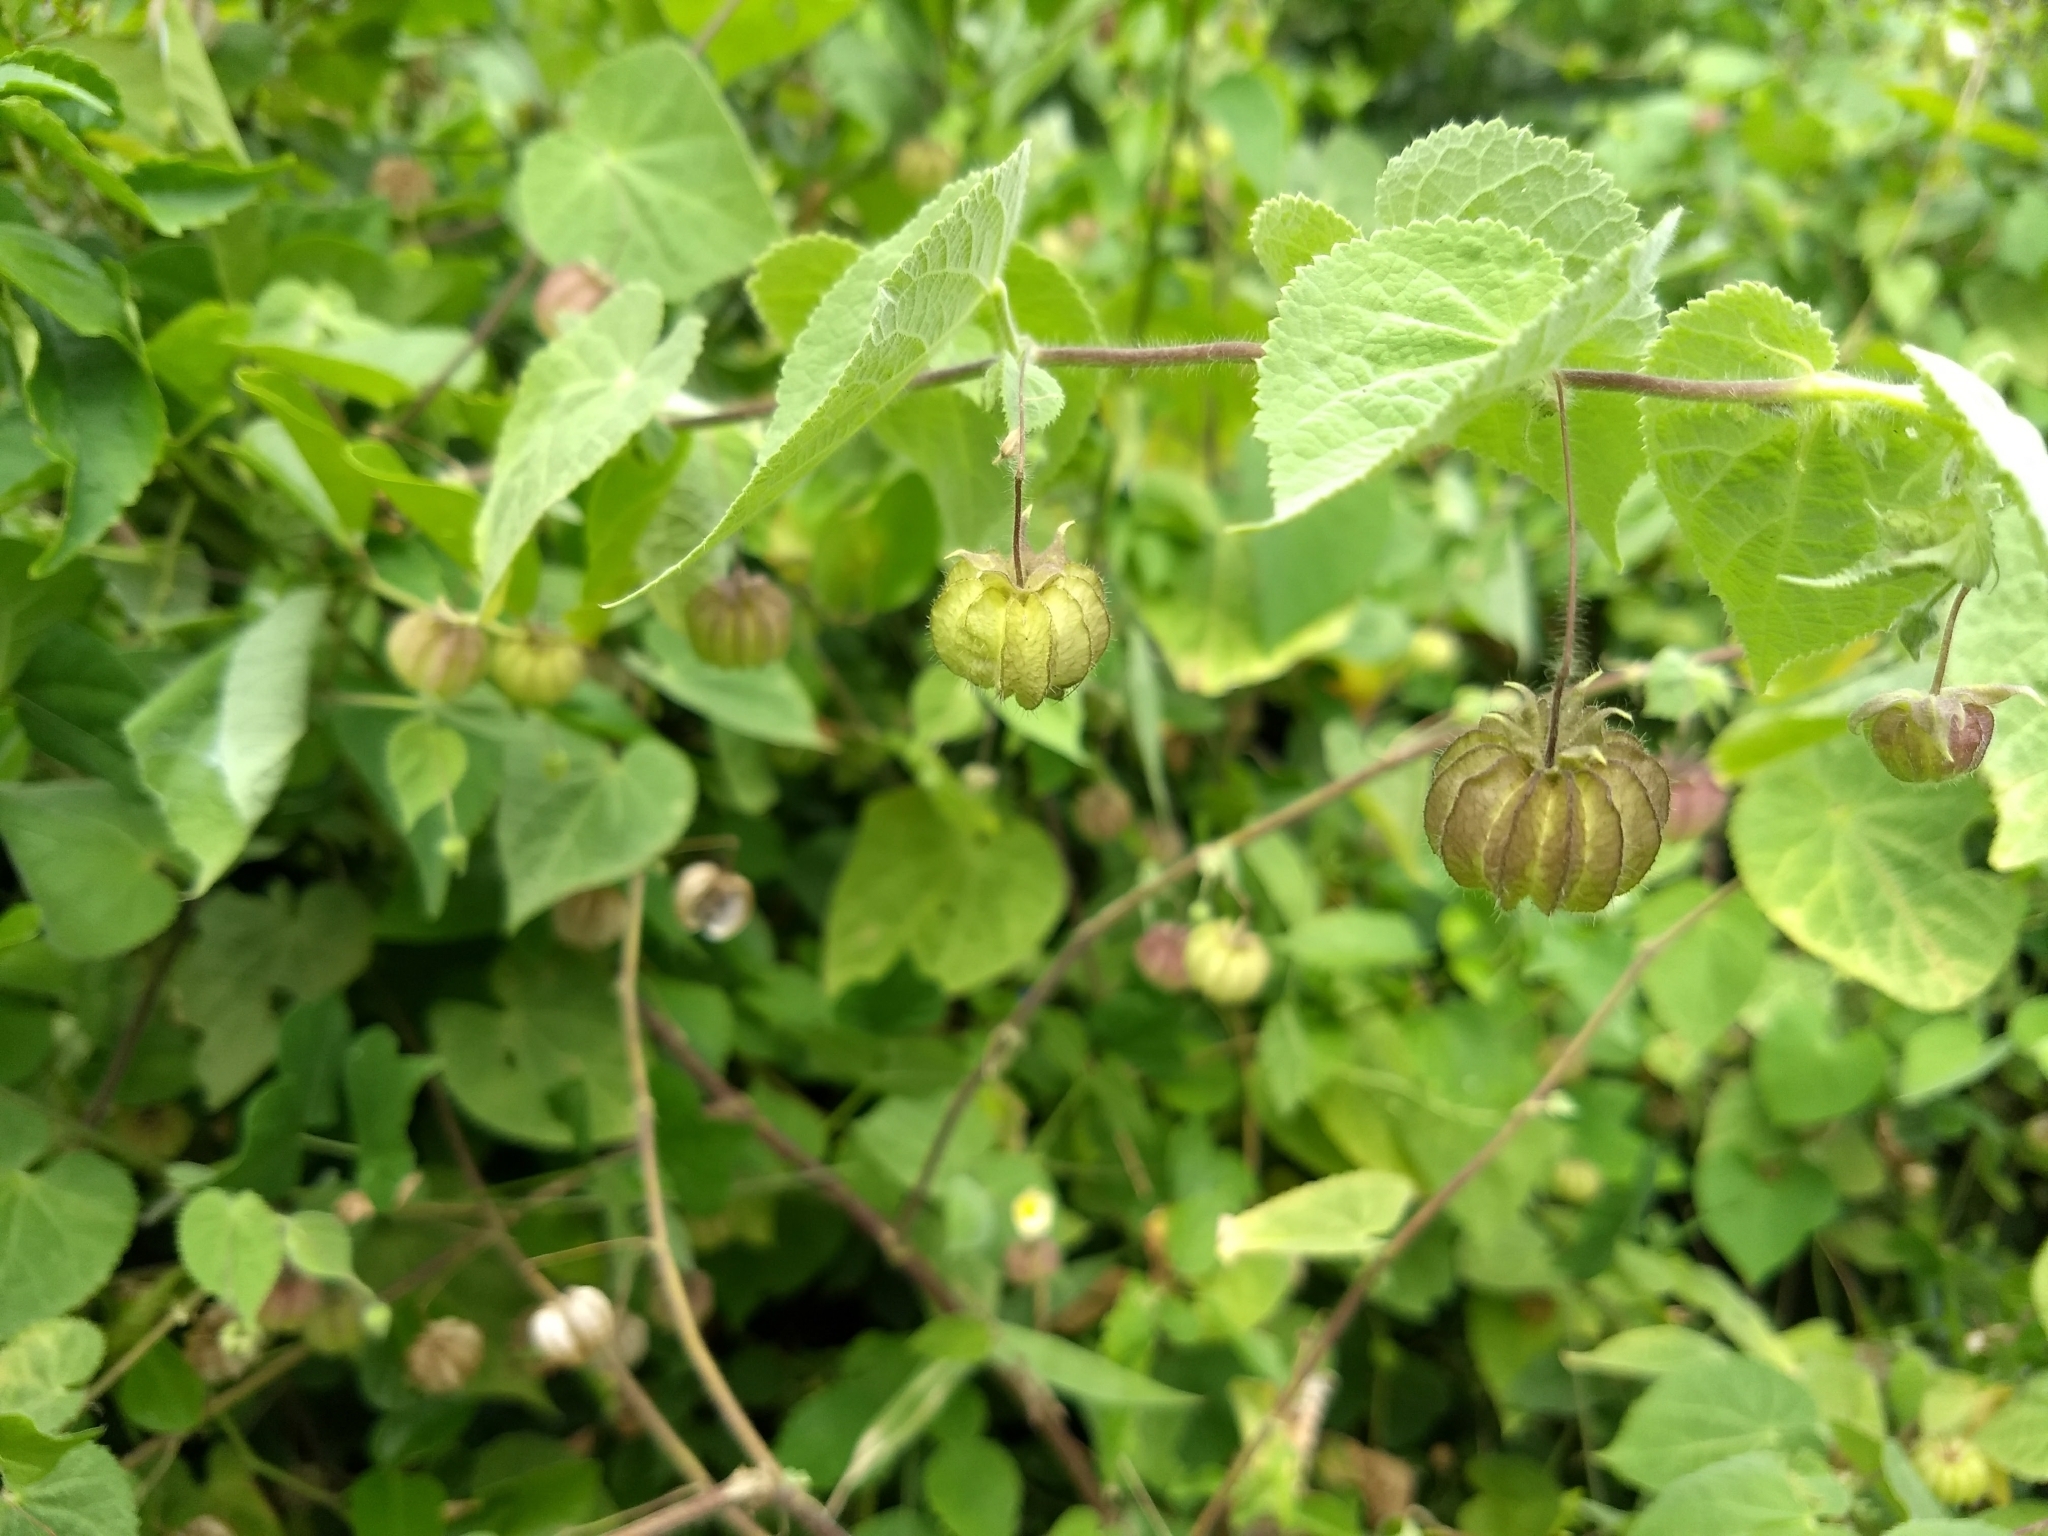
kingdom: Plantae
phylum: Tracheophyta
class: Magnoliopsida
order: Malvales
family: Malvaceae
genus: Herissantia
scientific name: Herissantia crispa
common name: Bladdermallow
